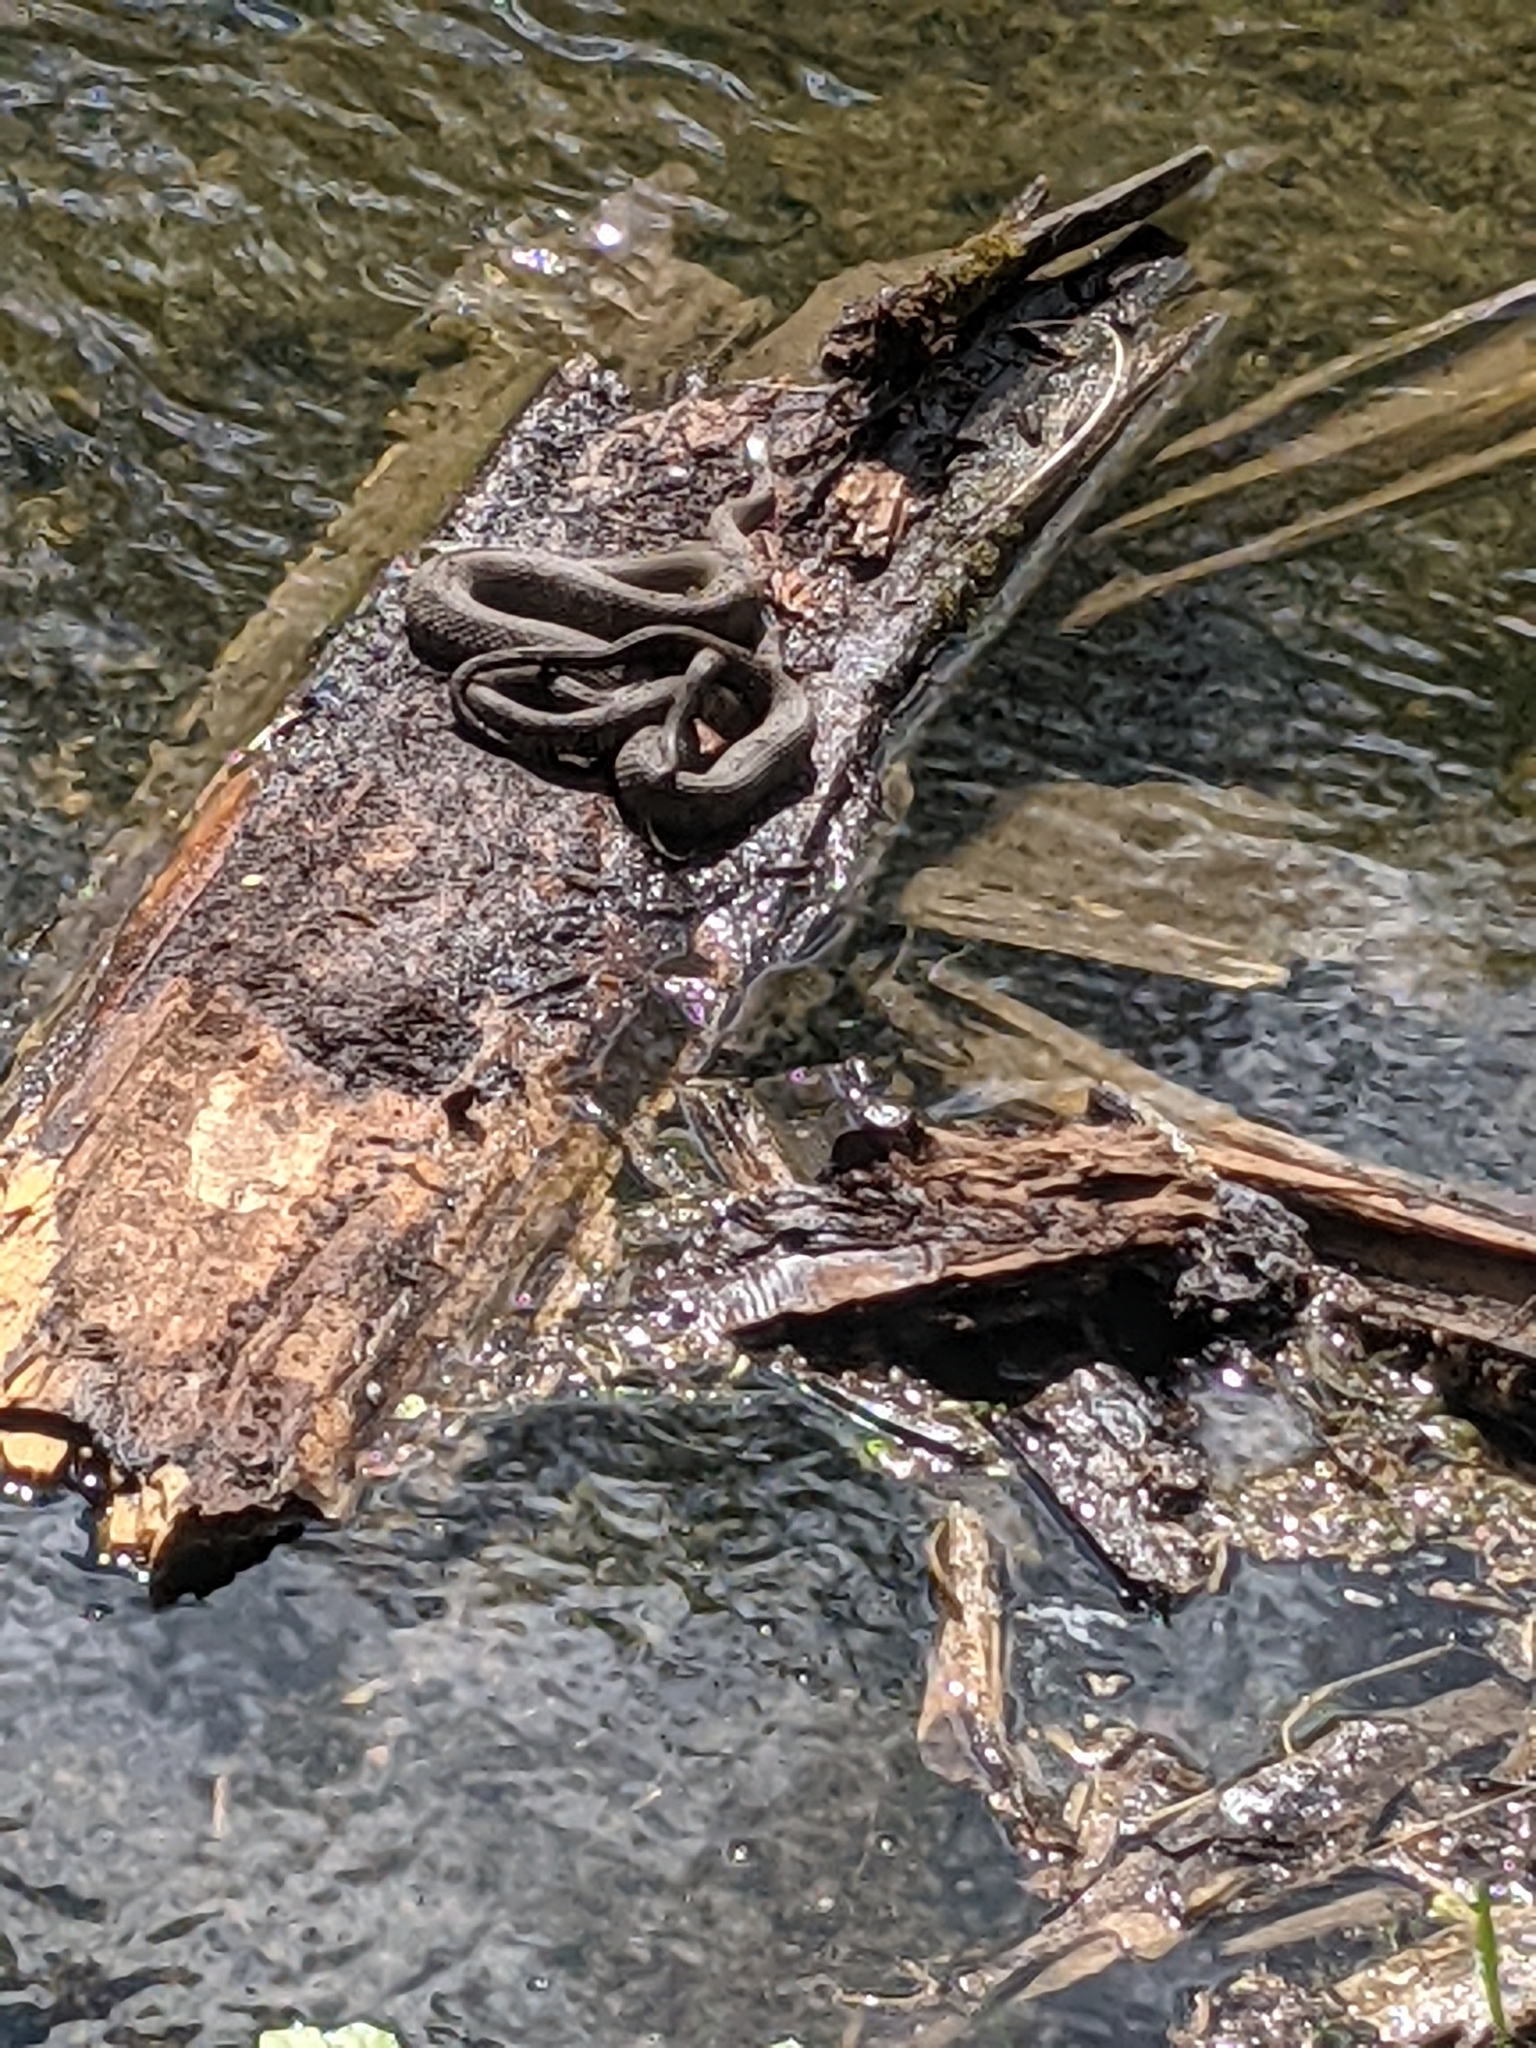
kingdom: Animalia
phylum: Chordata
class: Squamata
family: Colubridae
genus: Nerodia
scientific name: Nerodia sipedon
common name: Northern water snake
